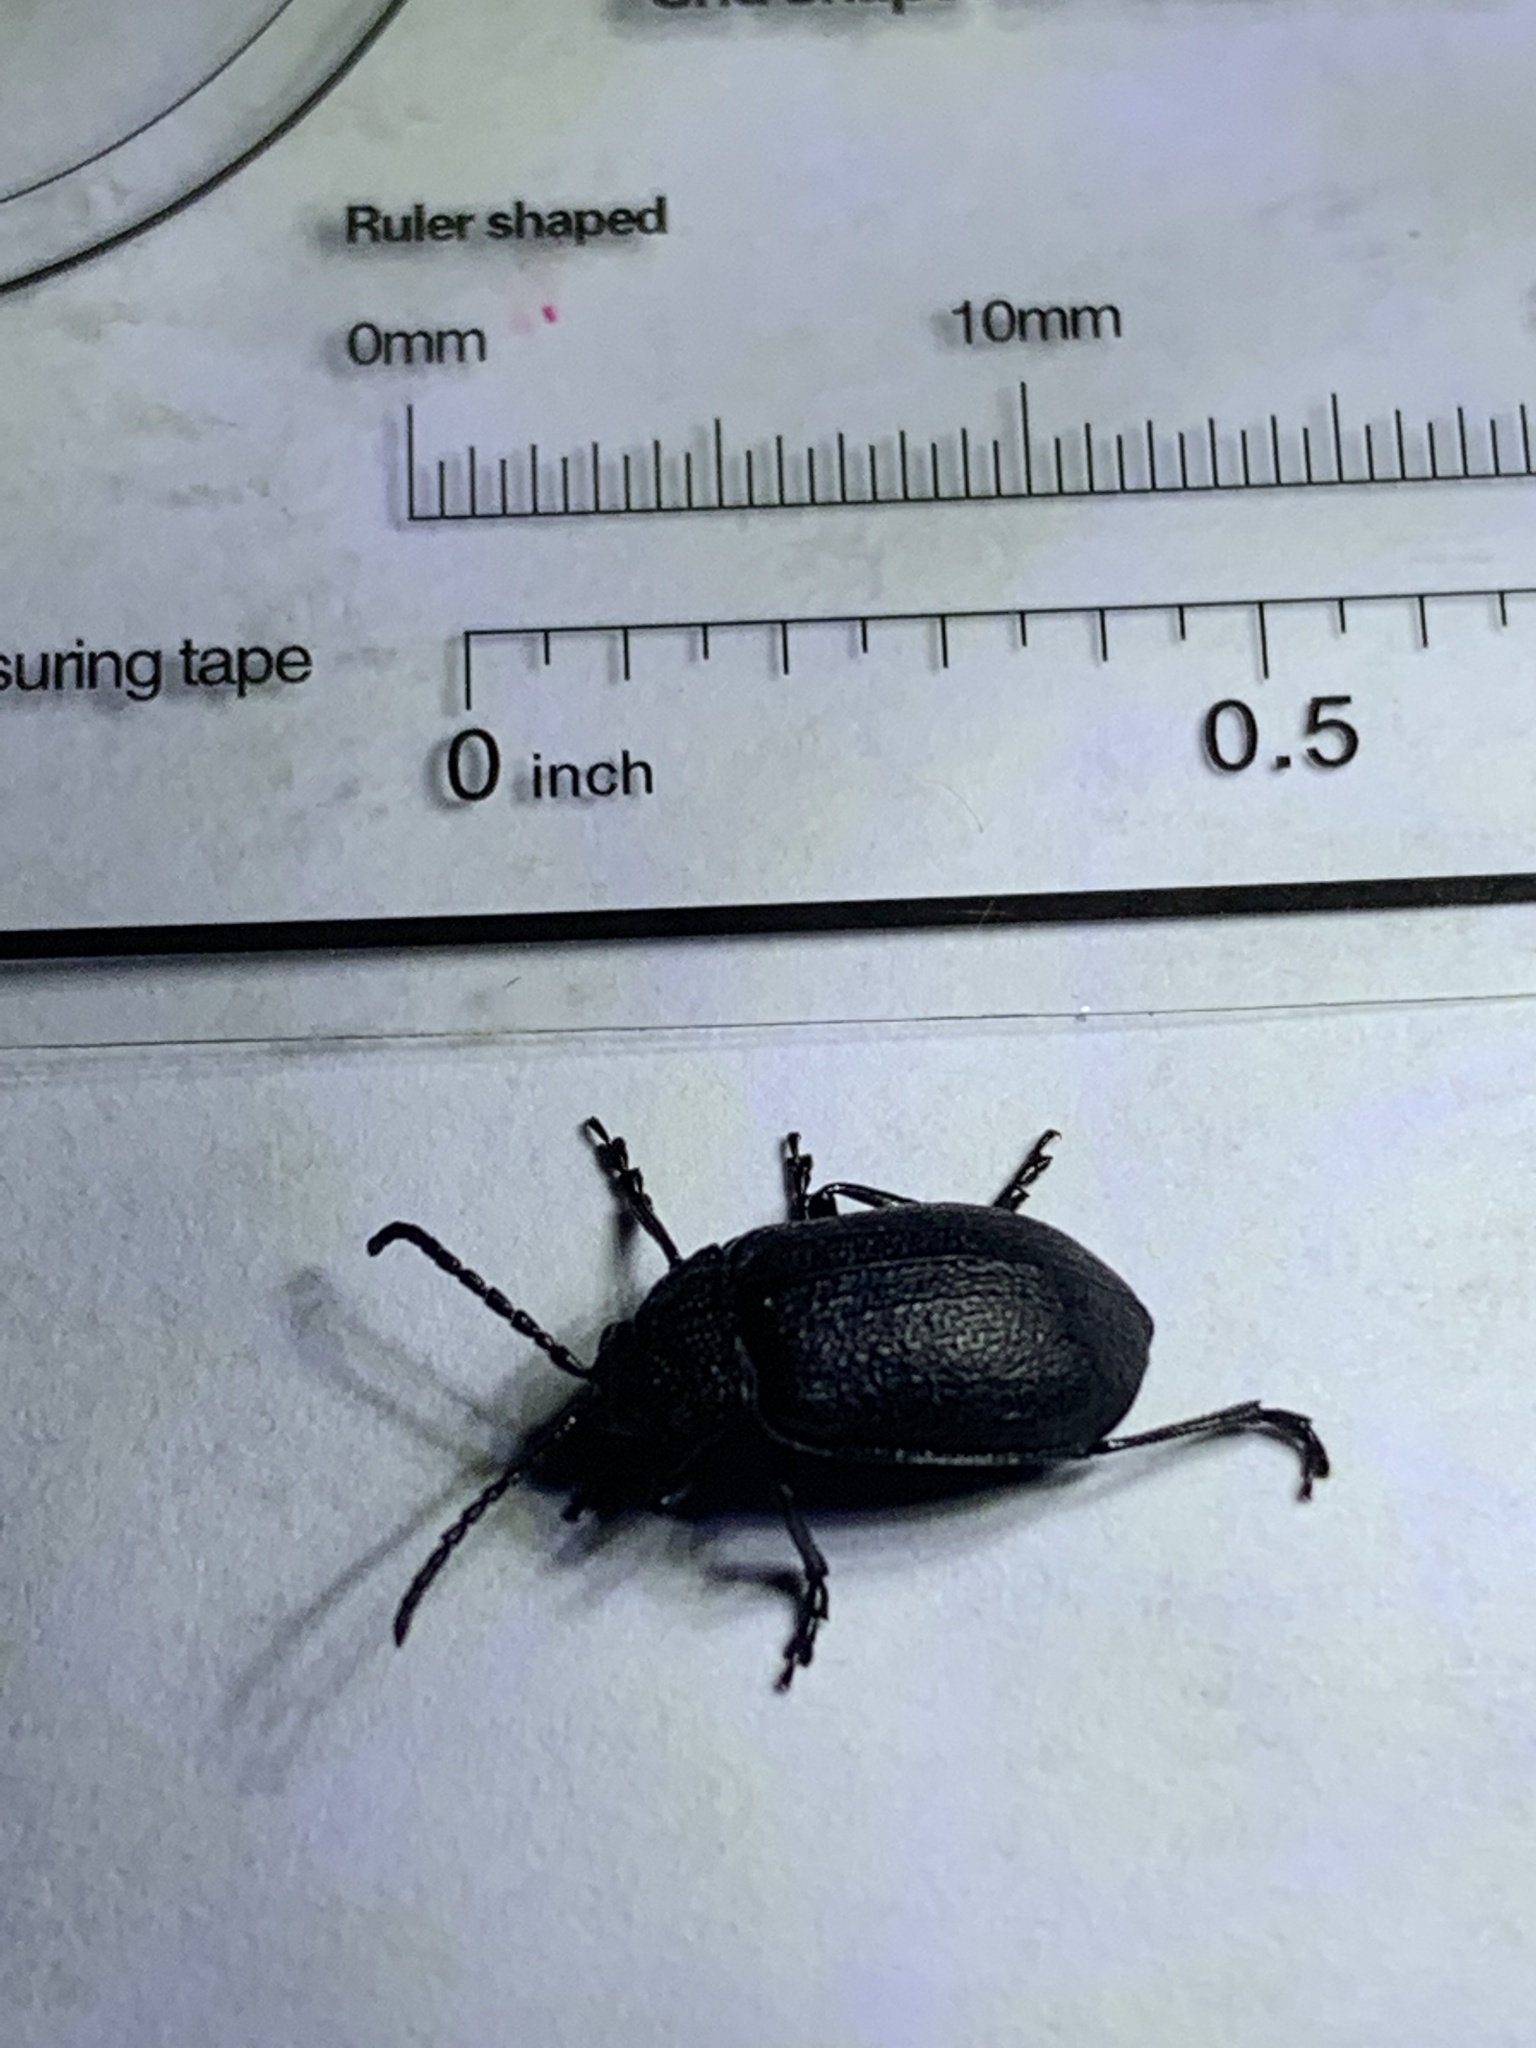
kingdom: Animalia
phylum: Arthropoda
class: Insecta
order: Coleoptera
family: Chrysomelidae
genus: Galeruca
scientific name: Galeruca tanaceti
